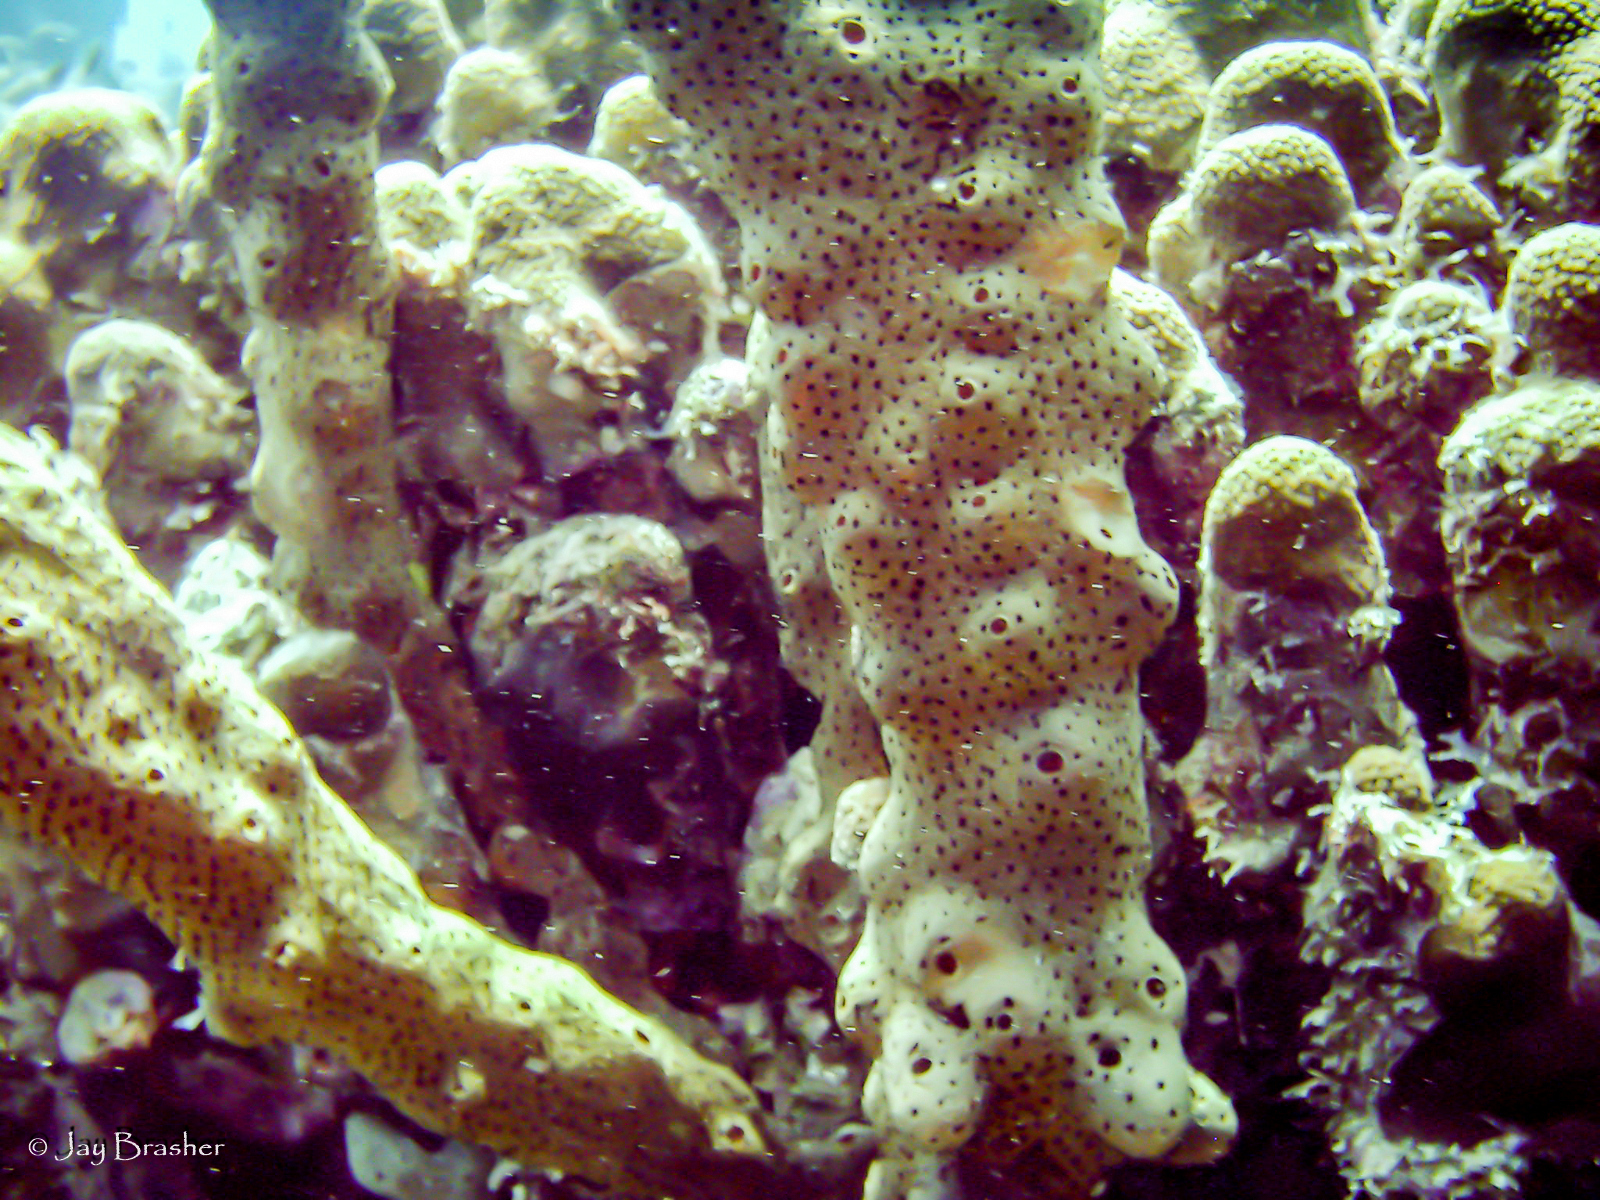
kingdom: Animalia
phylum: Porifera
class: Demospongiae
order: Agelasida
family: Agelasidae
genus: Agelas
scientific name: Agelas conifera
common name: Brown tube sponge
